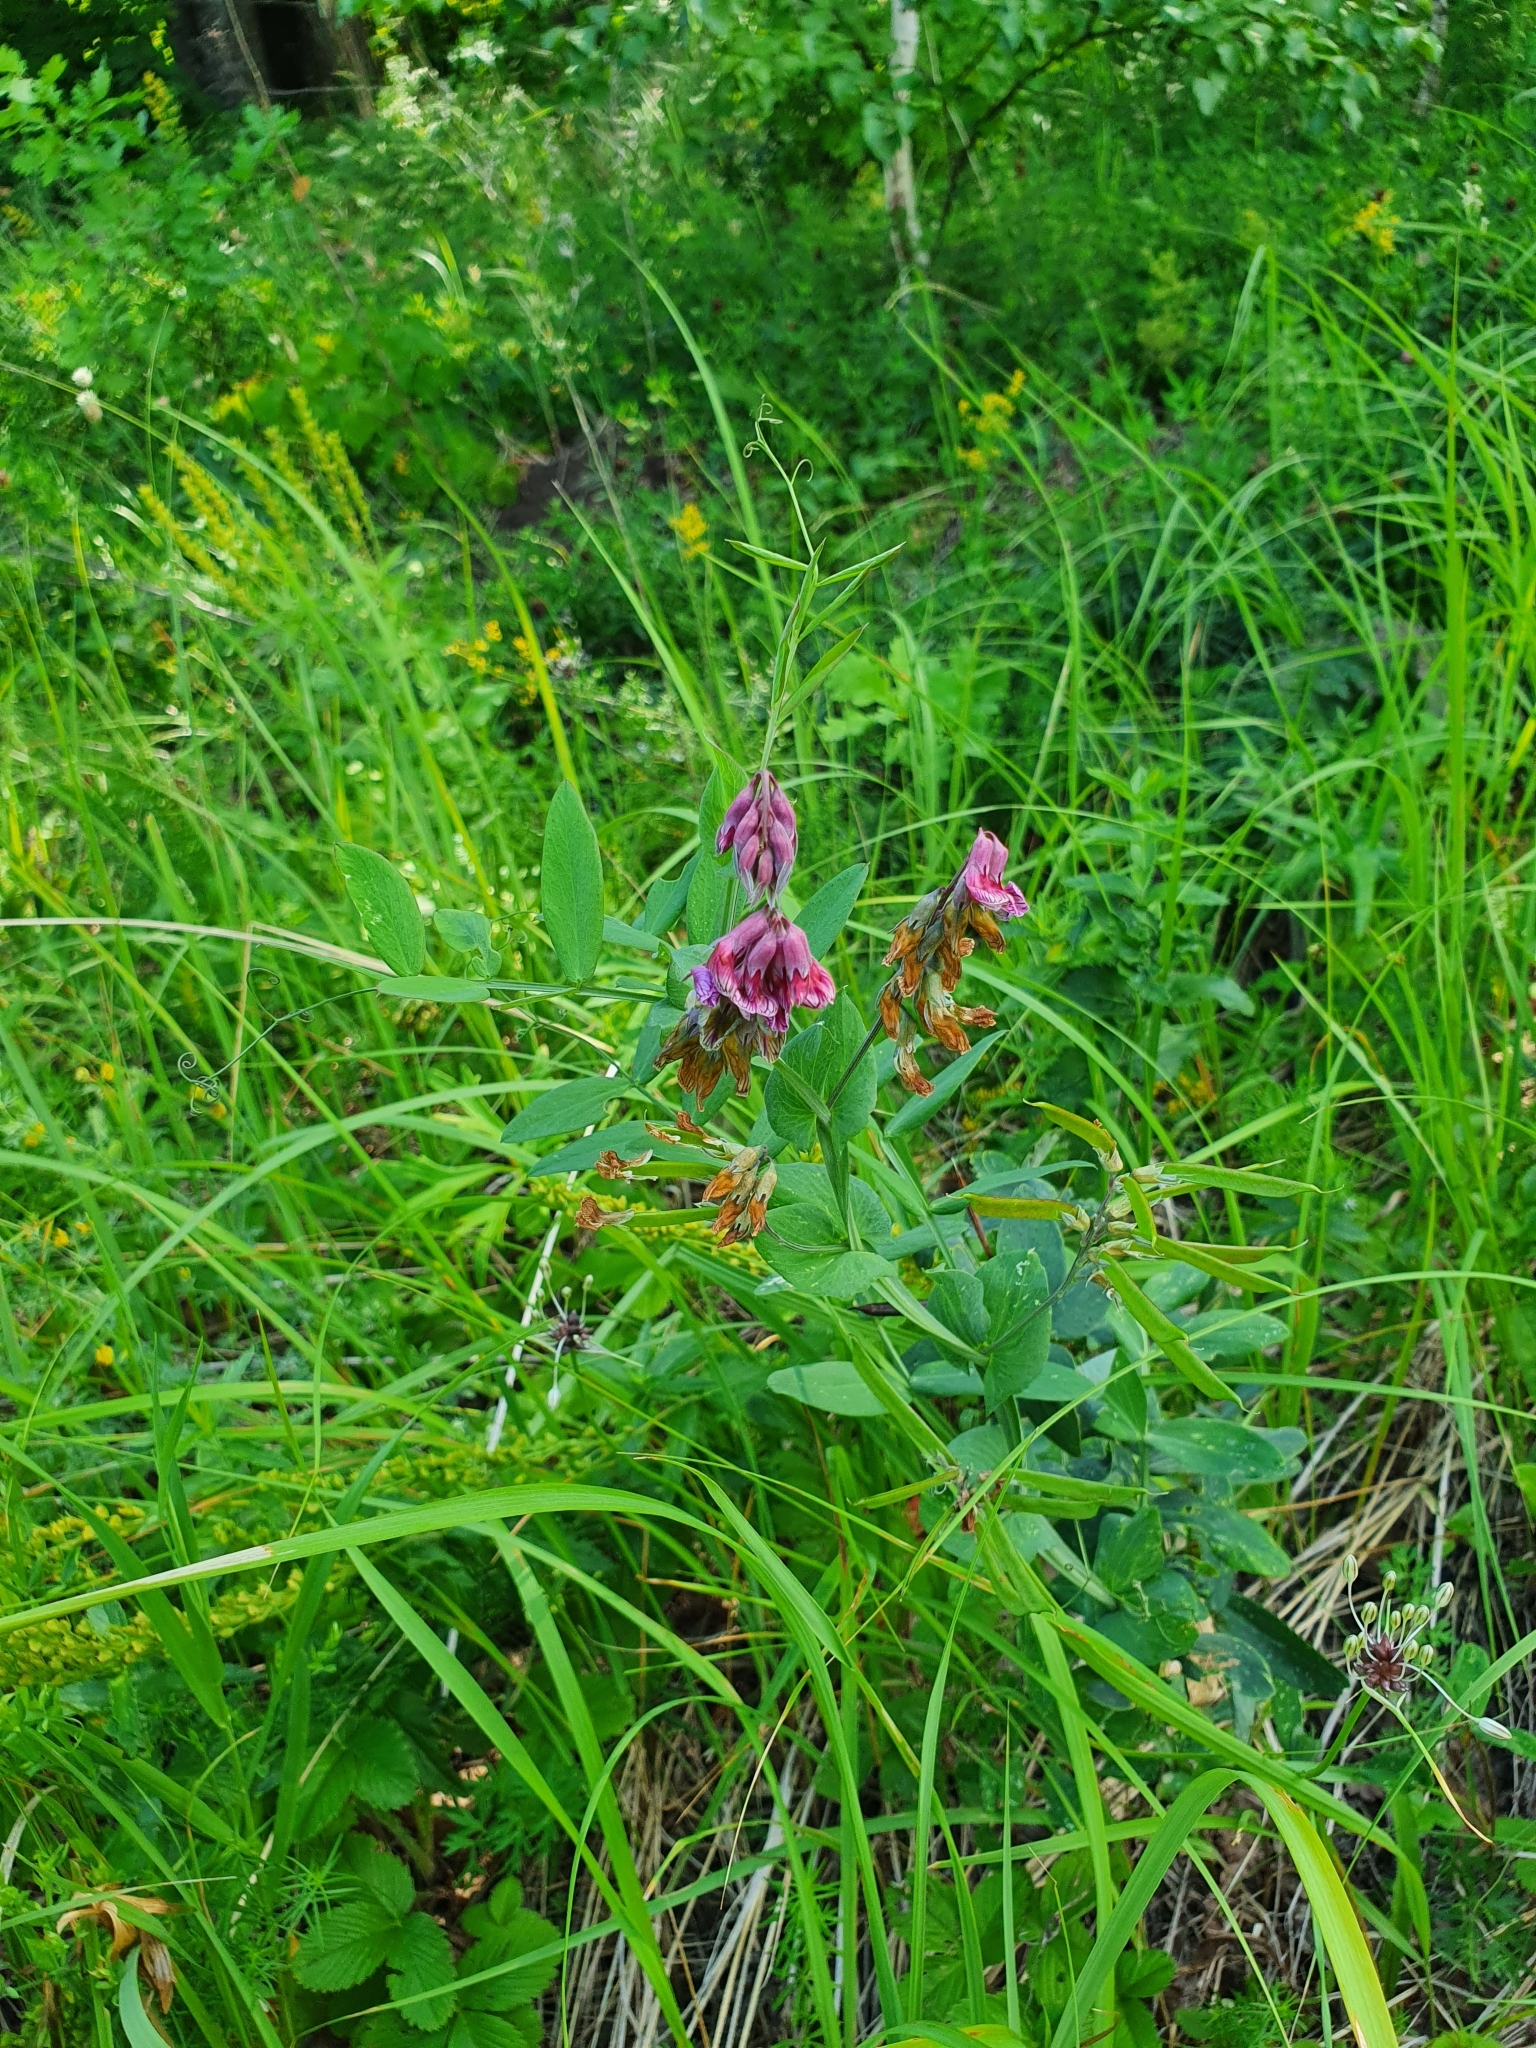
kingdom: Plantae
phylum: Tracheophyta
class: Magnoliopsida
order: Fabales
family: Fabaceae
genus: Lathyrus
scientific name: Lathyrus pisiformis
